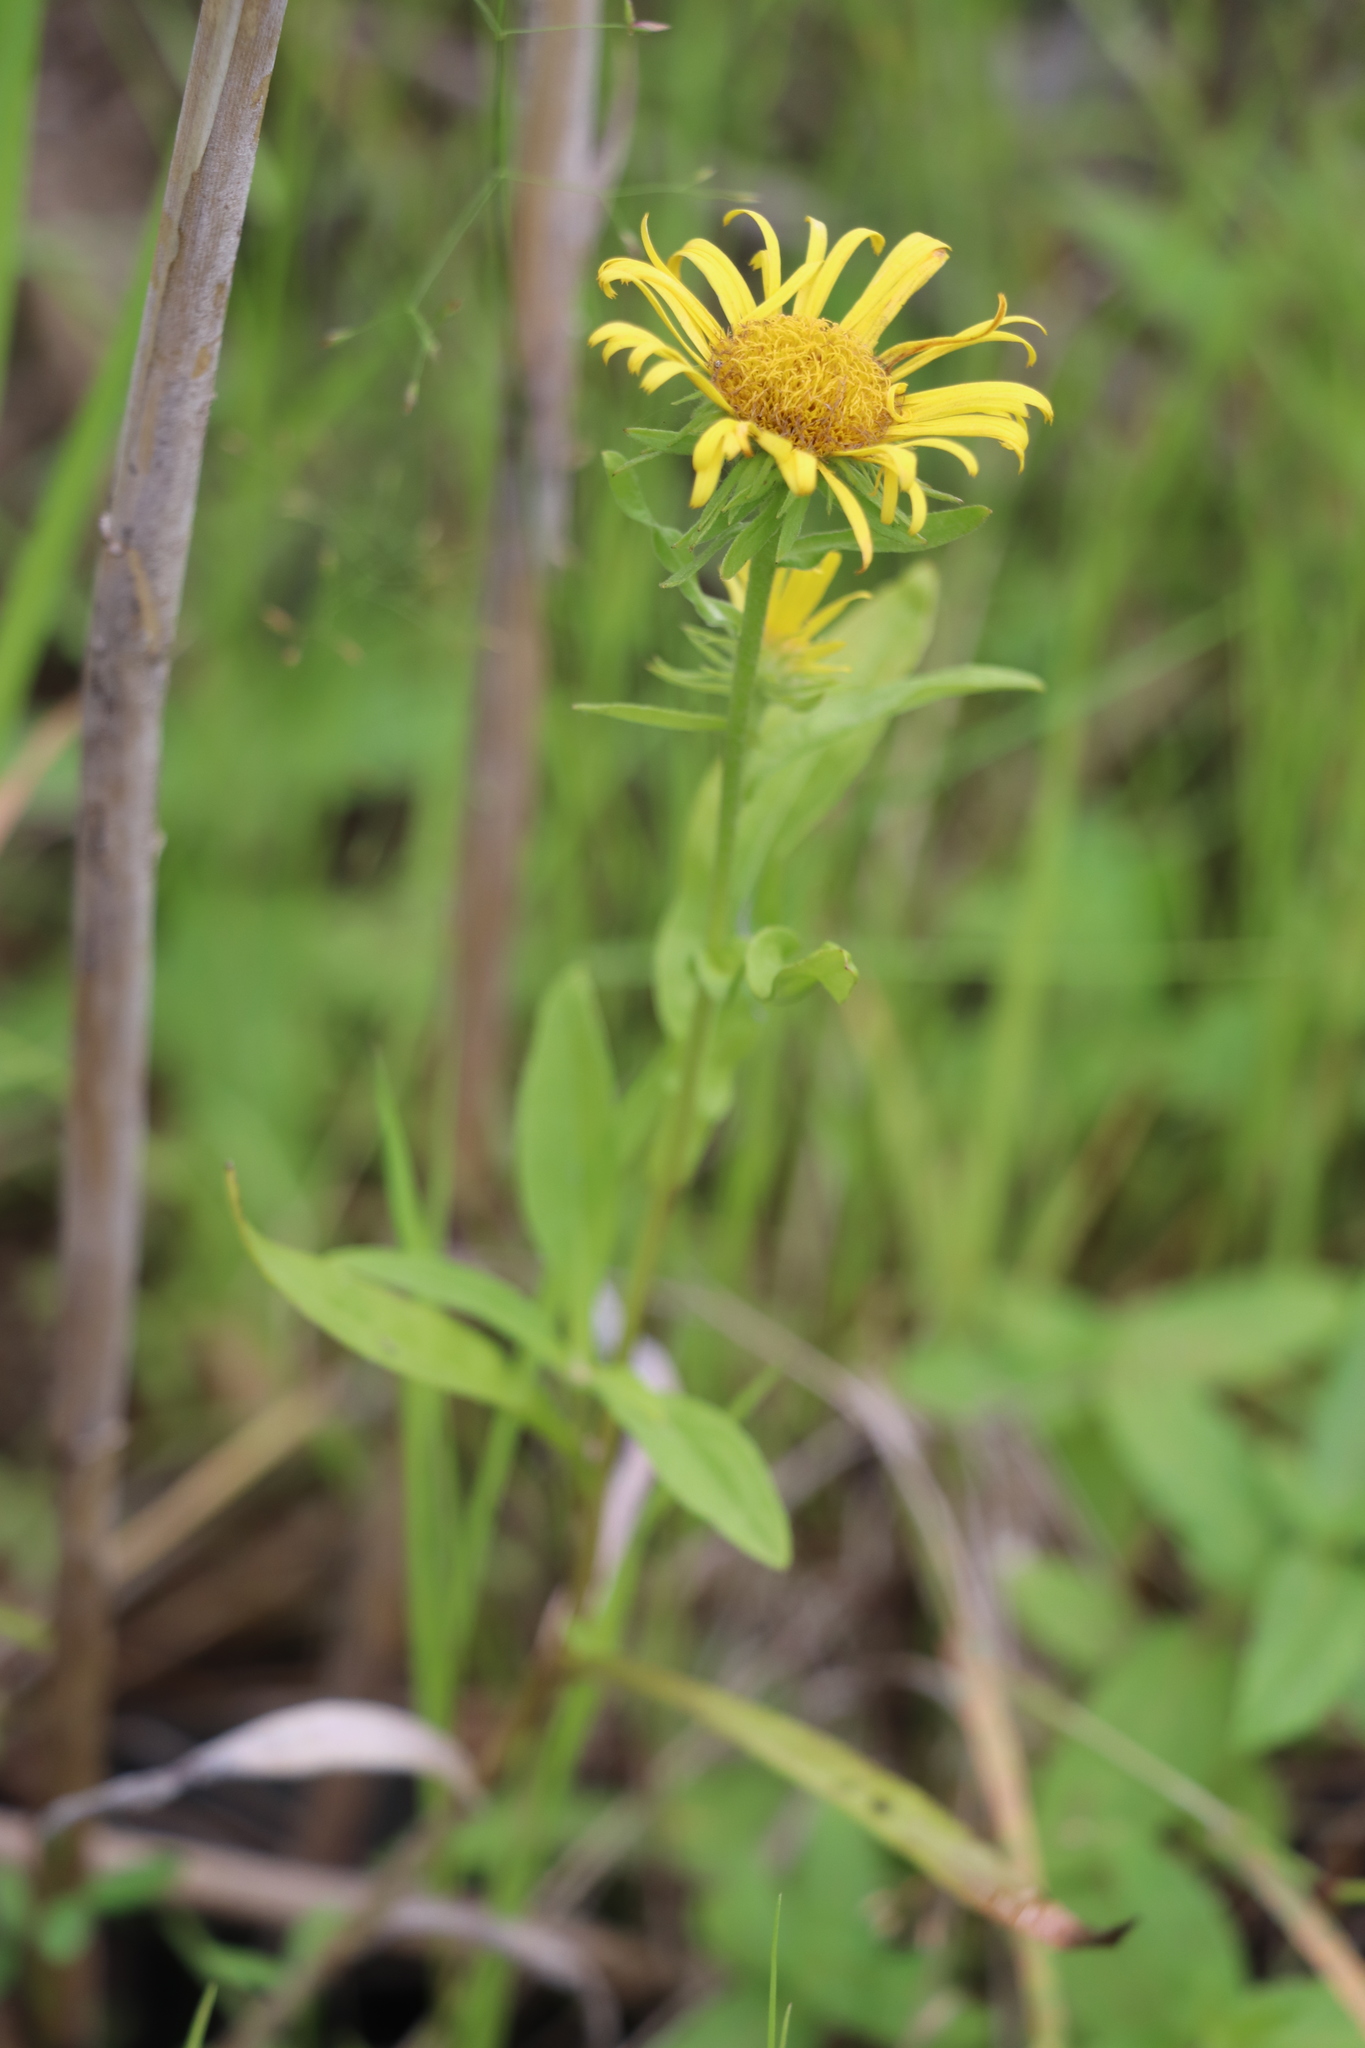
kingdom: Plantae
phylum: Tracheophyta
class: Magnoliopsida
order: Asterales
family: Asteraceae
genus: Pentanema
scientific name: Pentanema britannicum
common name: British elecampane
